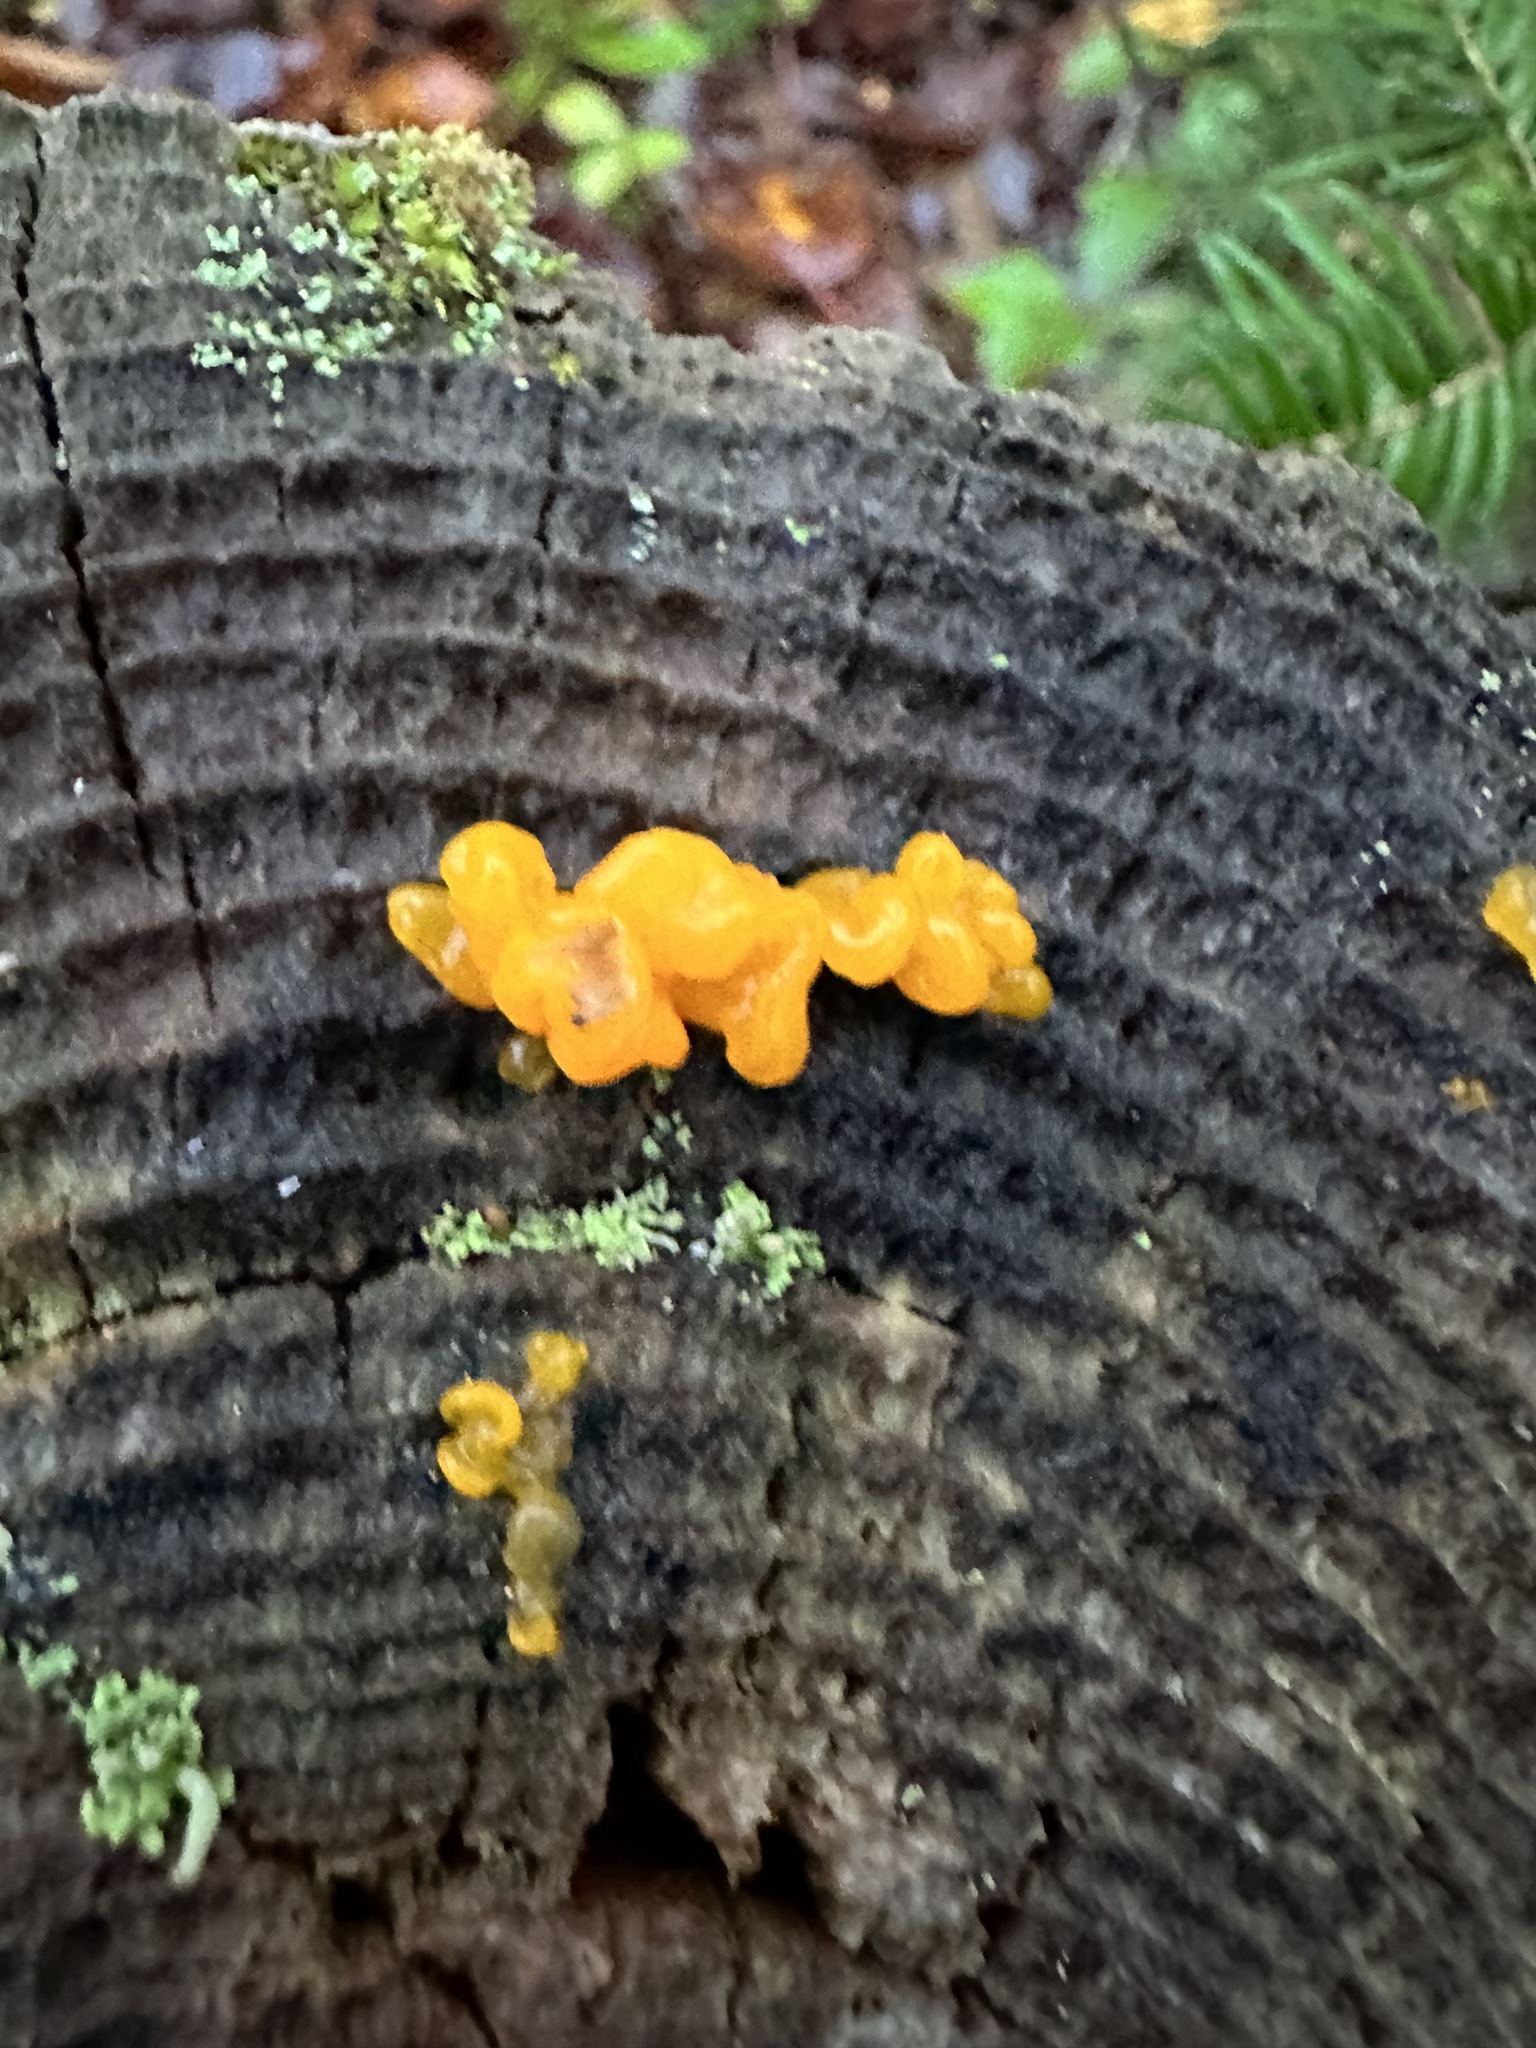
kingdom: Fungi
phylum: Basidiomycota
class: Dacrymycetes
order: Dacrymycetales
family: Dacrymycetaceae
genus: Dacrymyces
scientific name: Dacrymyces chrysospermus
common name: Orange jelly spot
